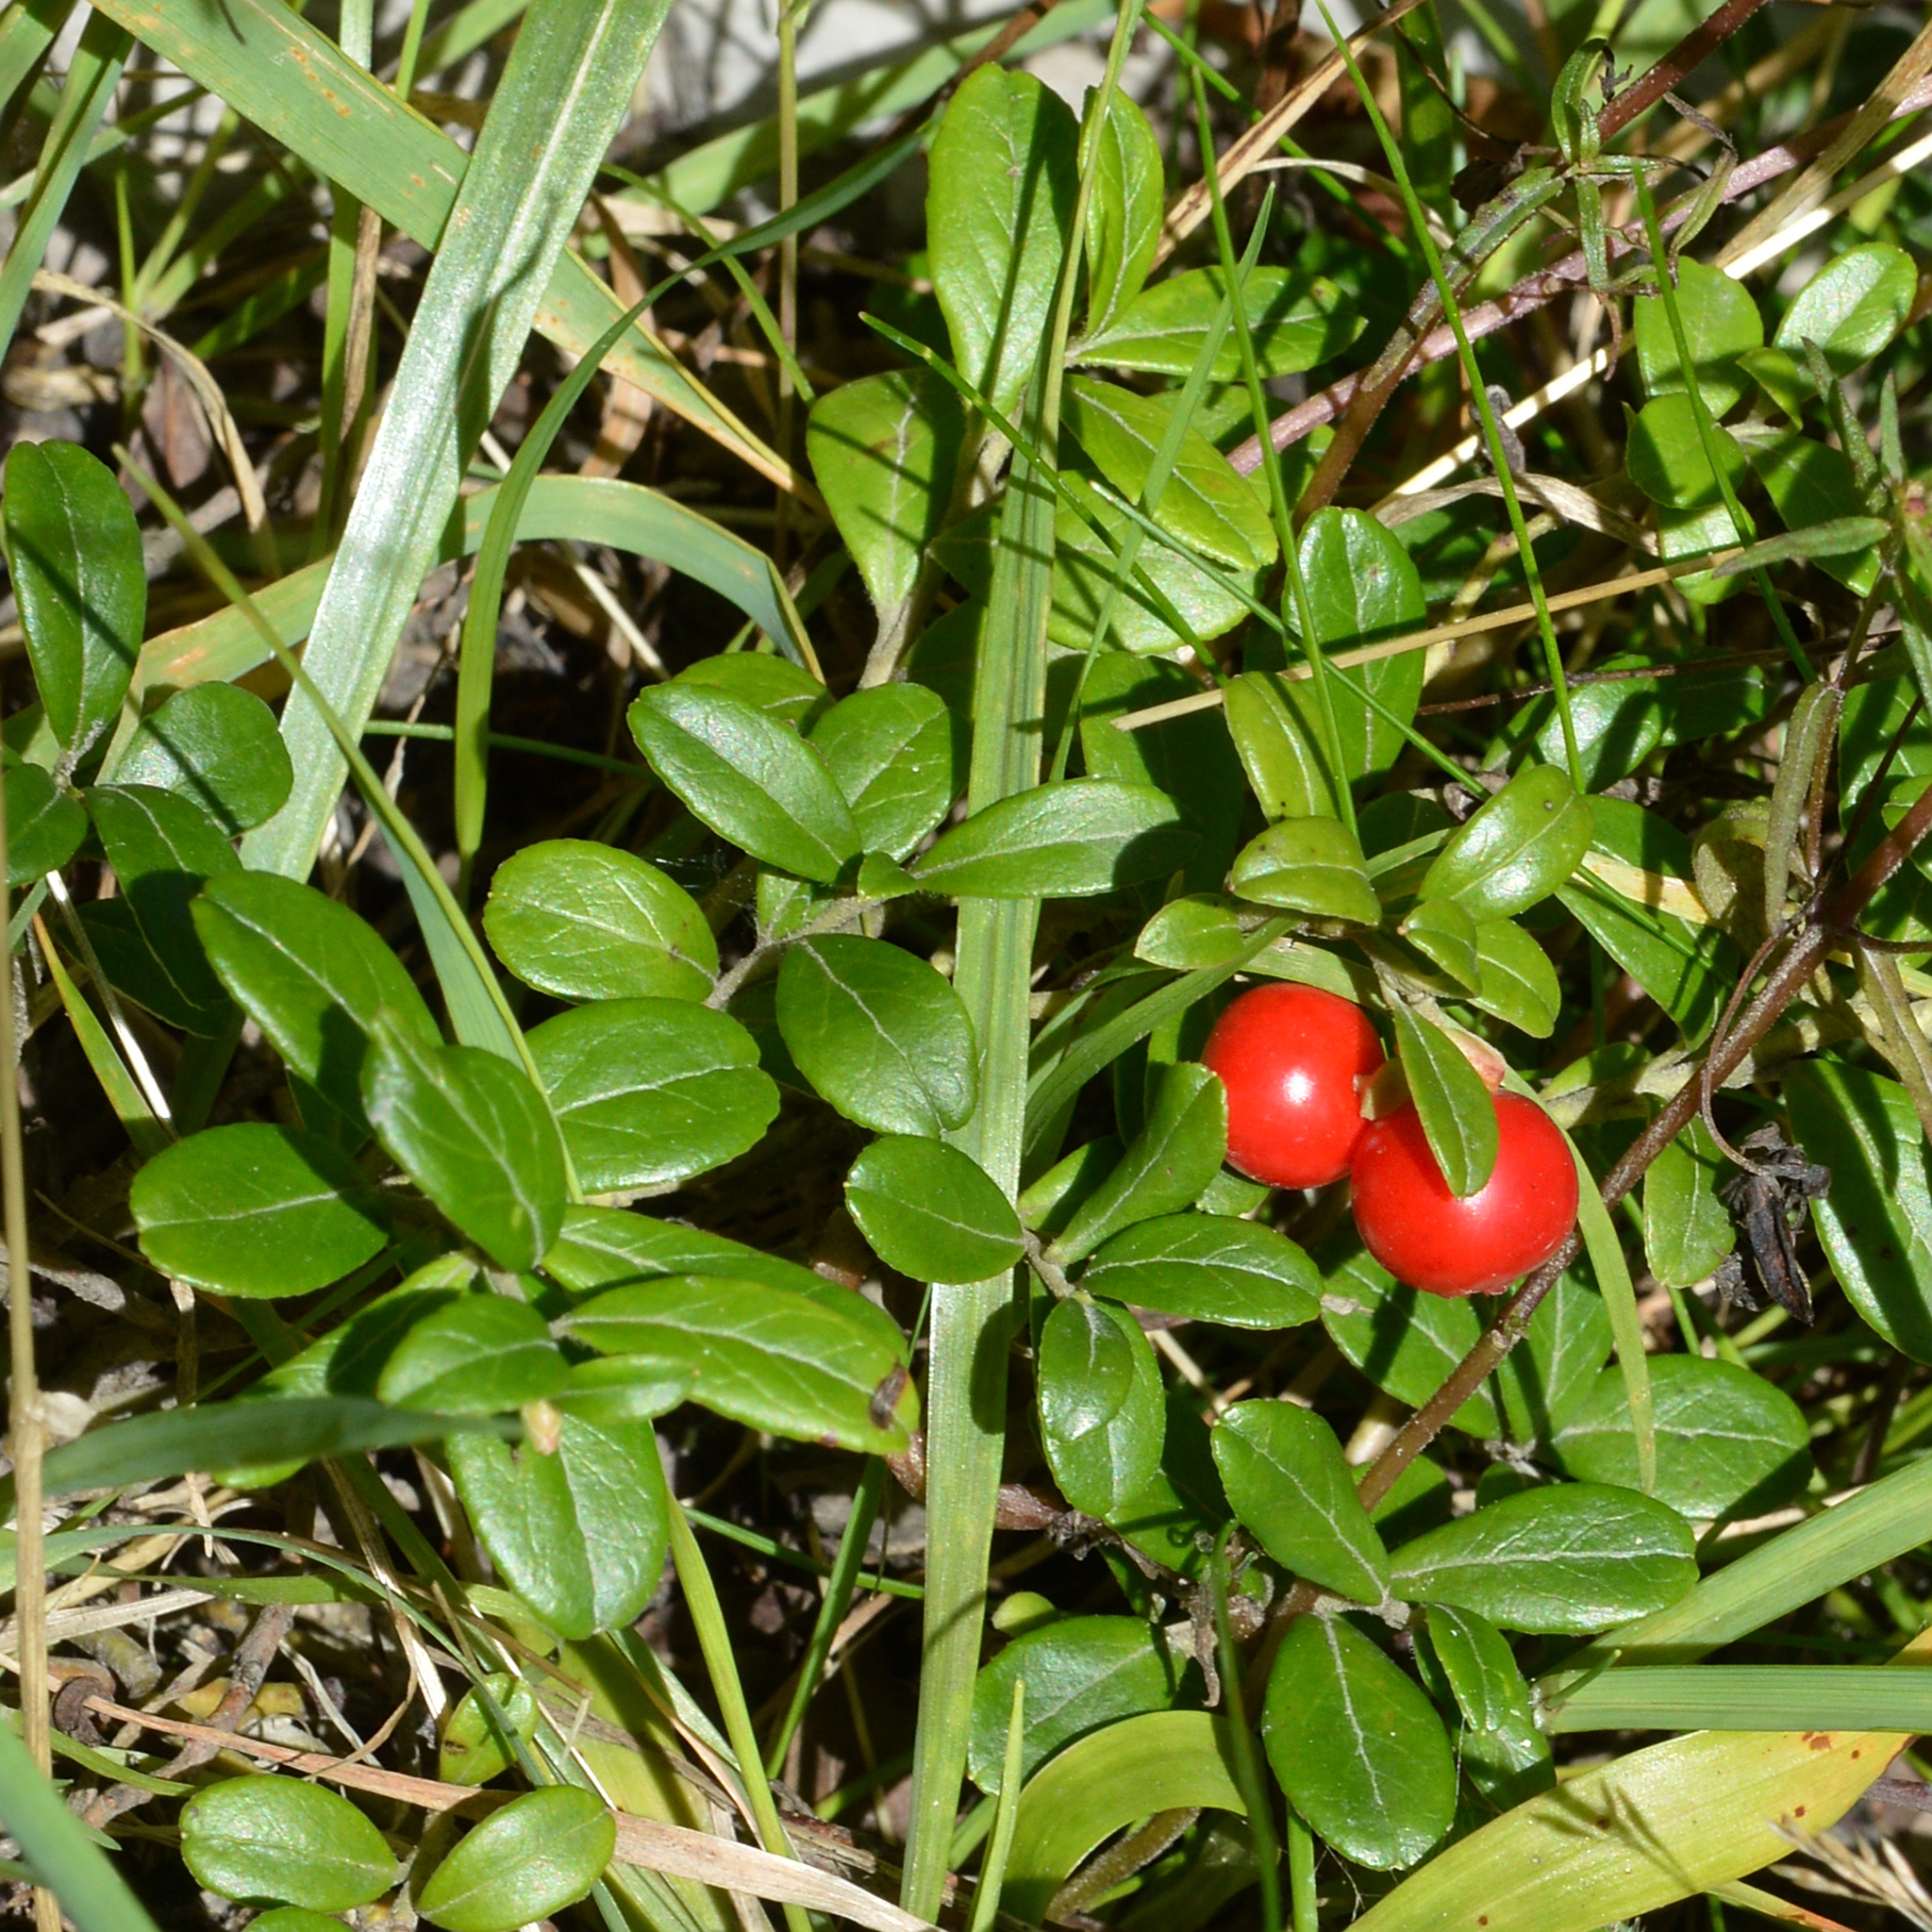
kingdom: Plantae
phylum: Tracheophyta
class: Magnoliopsida
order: Ericales
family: Ericaceae
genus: Vaccinium
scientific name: Vaccinium vitis-idaea
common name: Cowberry
